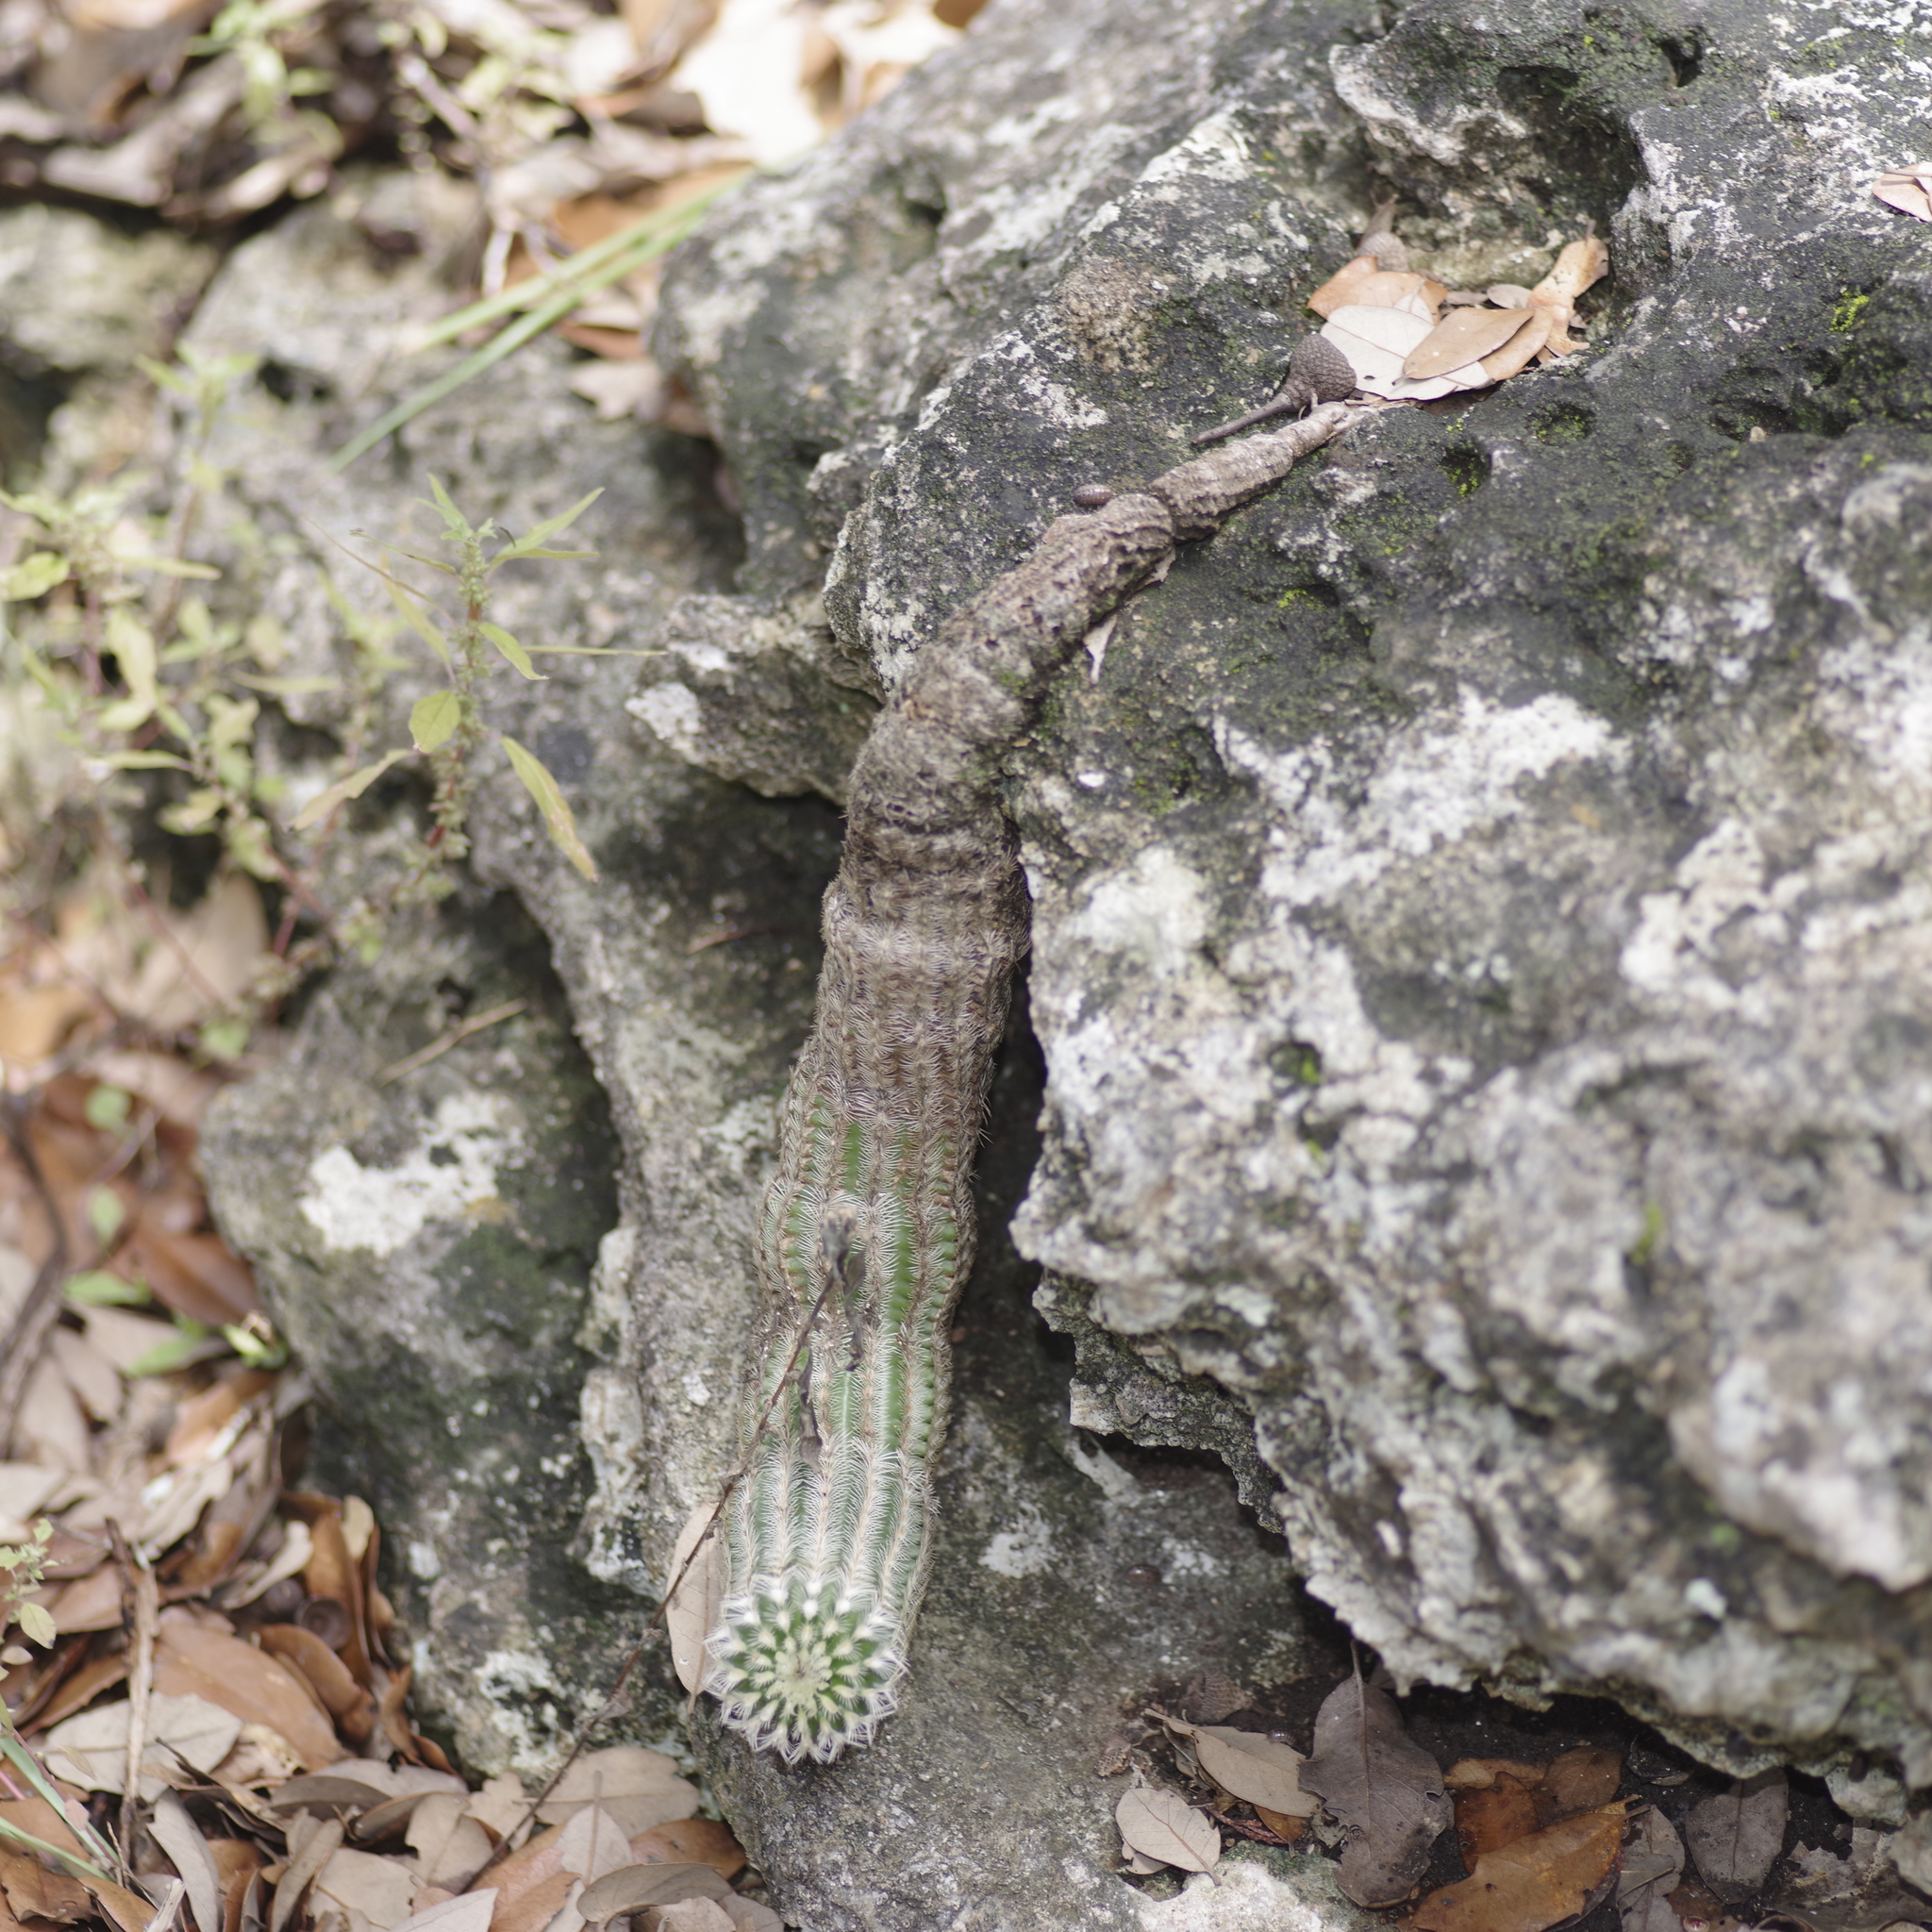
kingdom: Plantae
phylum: Tracheophyta
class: Magnoliopsida
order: Caryophyllales
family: Cactaceae
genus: Echinocereus
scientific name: Echinocereus reichenbachii
